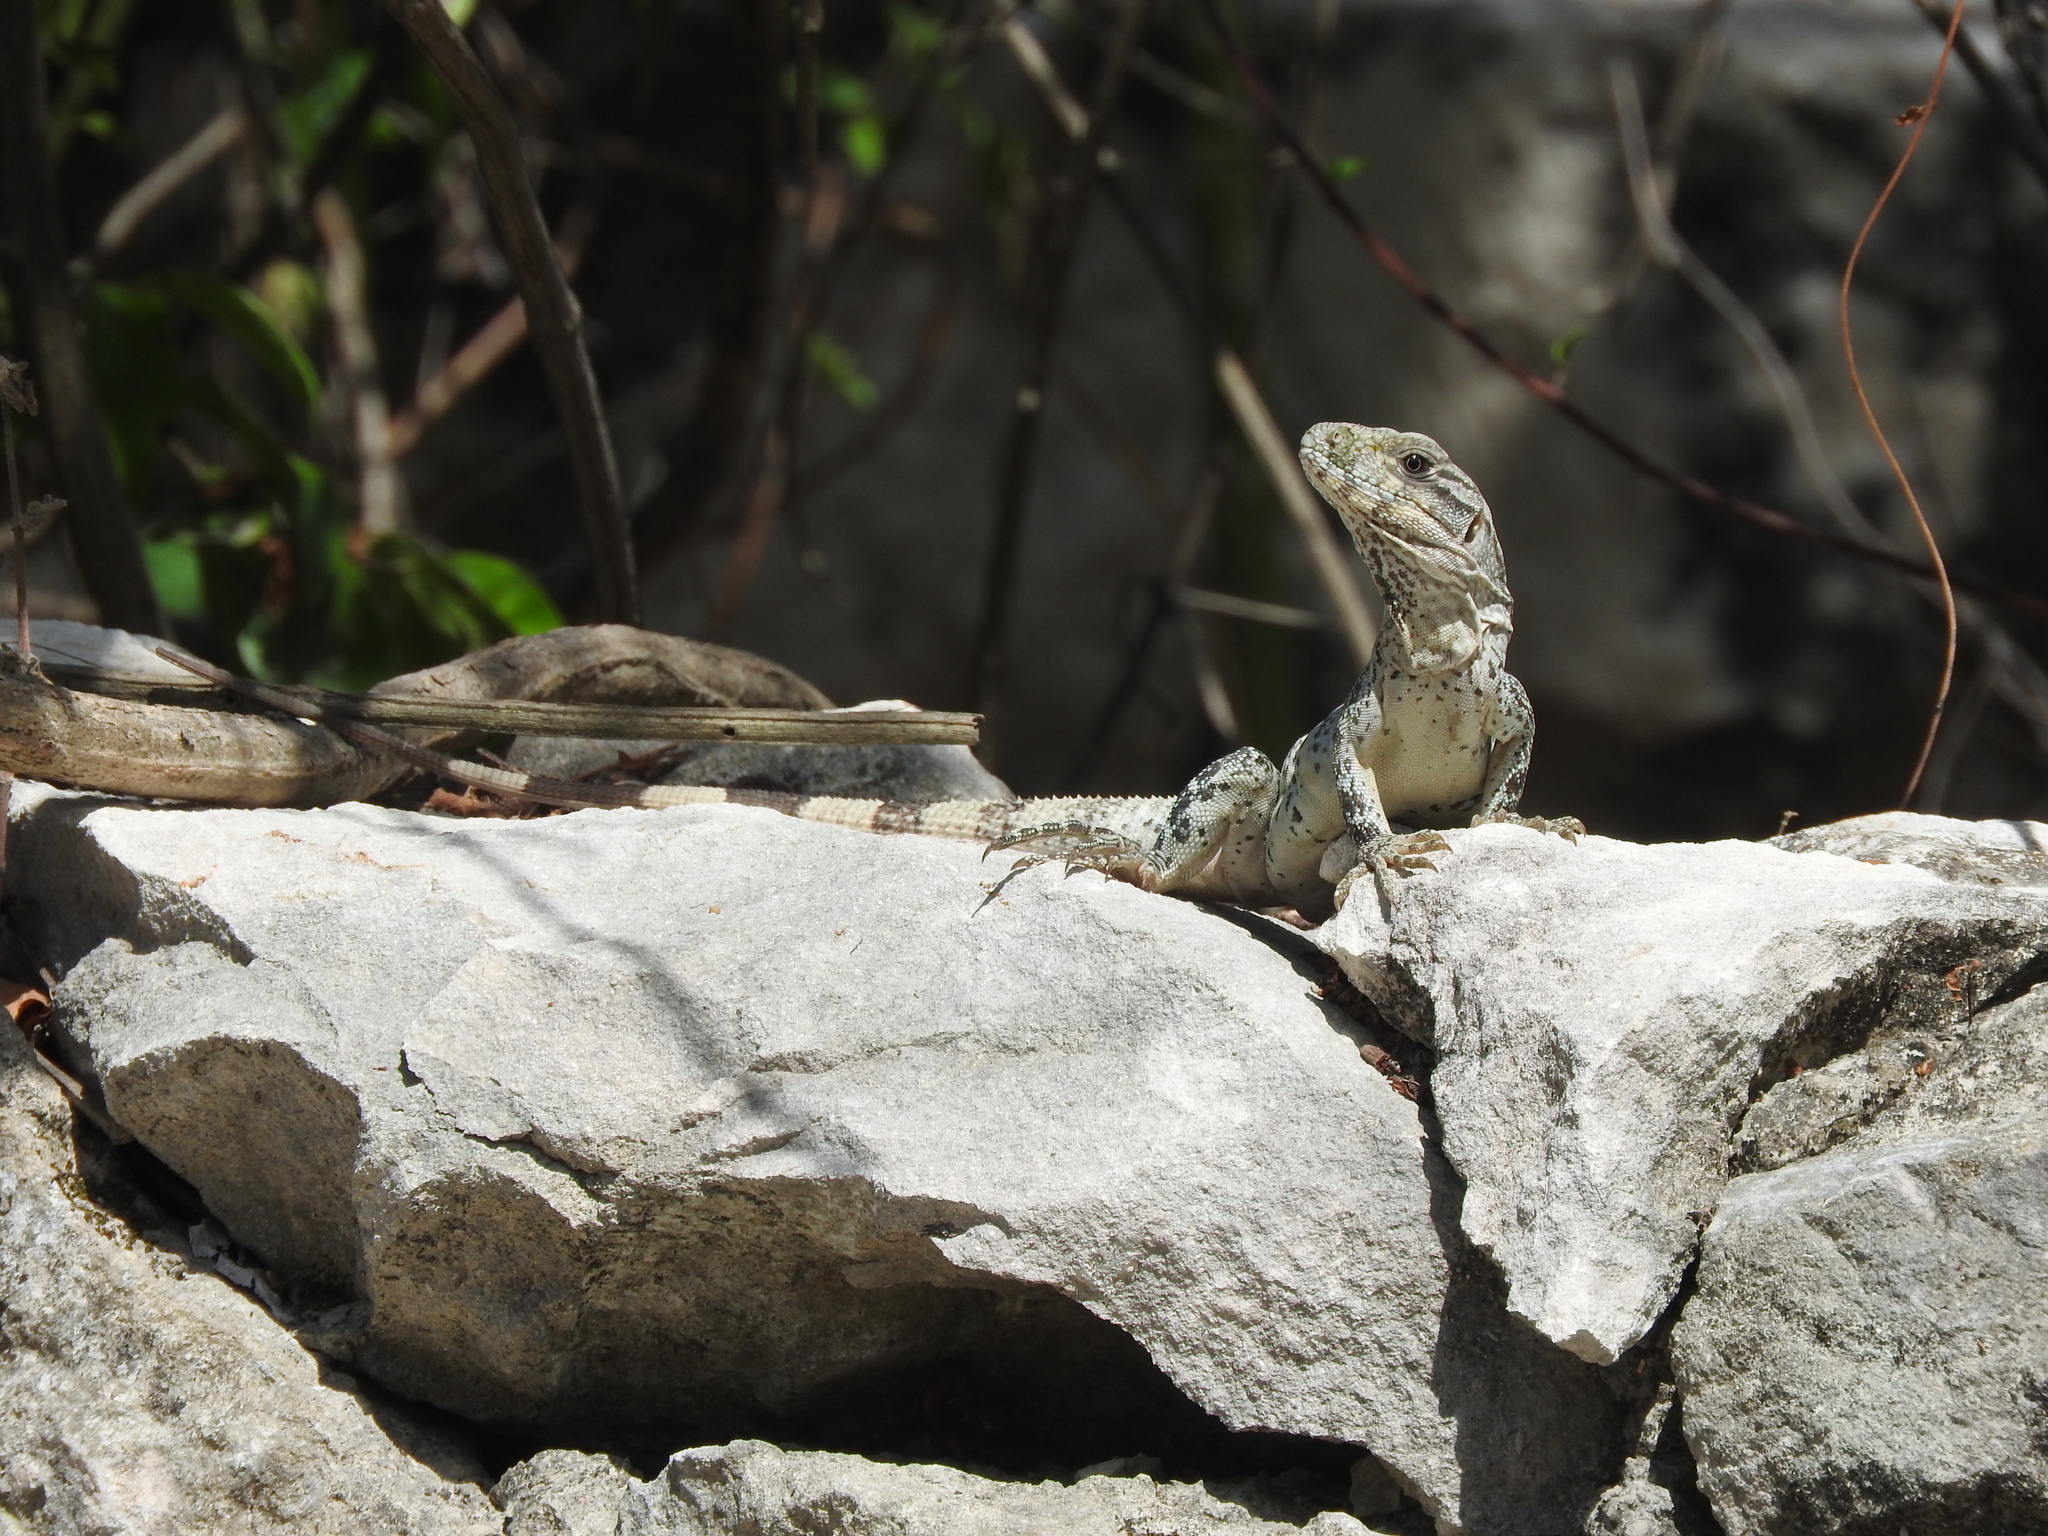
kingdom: Animalia
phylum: Chordata
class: Squamata
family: Iguanidae
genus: Ctenosaura
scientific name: Ctenosaura similis
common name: Black spiny-tailed iguana
